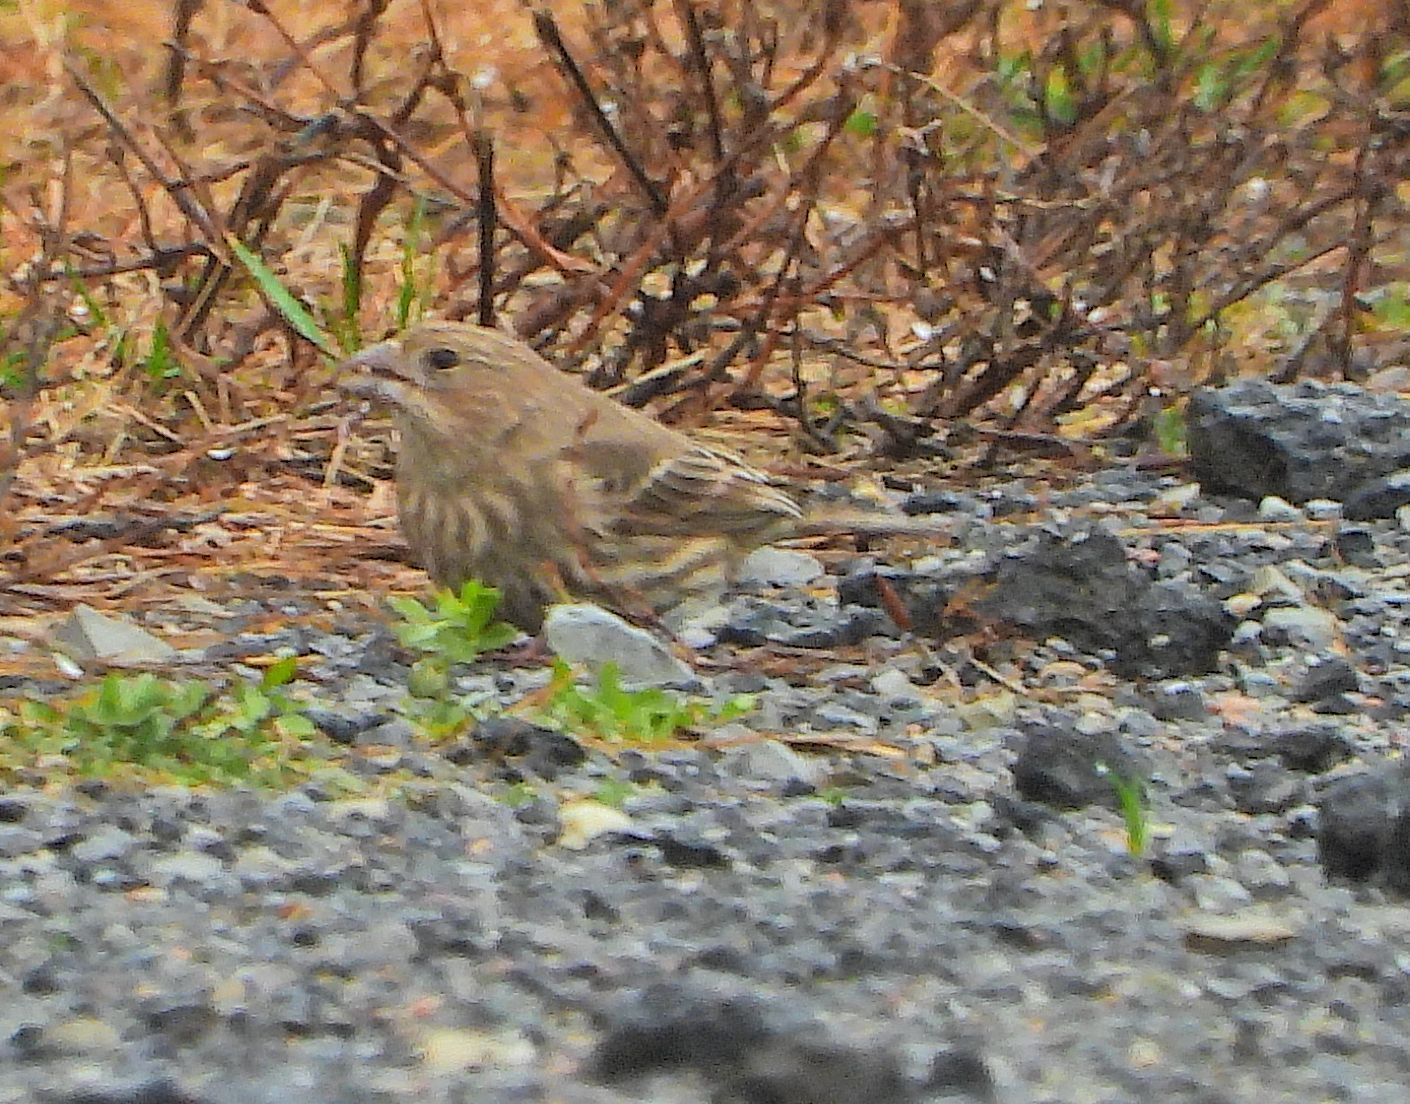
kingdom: Animalia
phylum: Chordata
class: Aves
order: Passeriformes
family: Fringillidae
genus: Haemorhous
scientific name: Haemorhous mexicanus
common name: House finch
